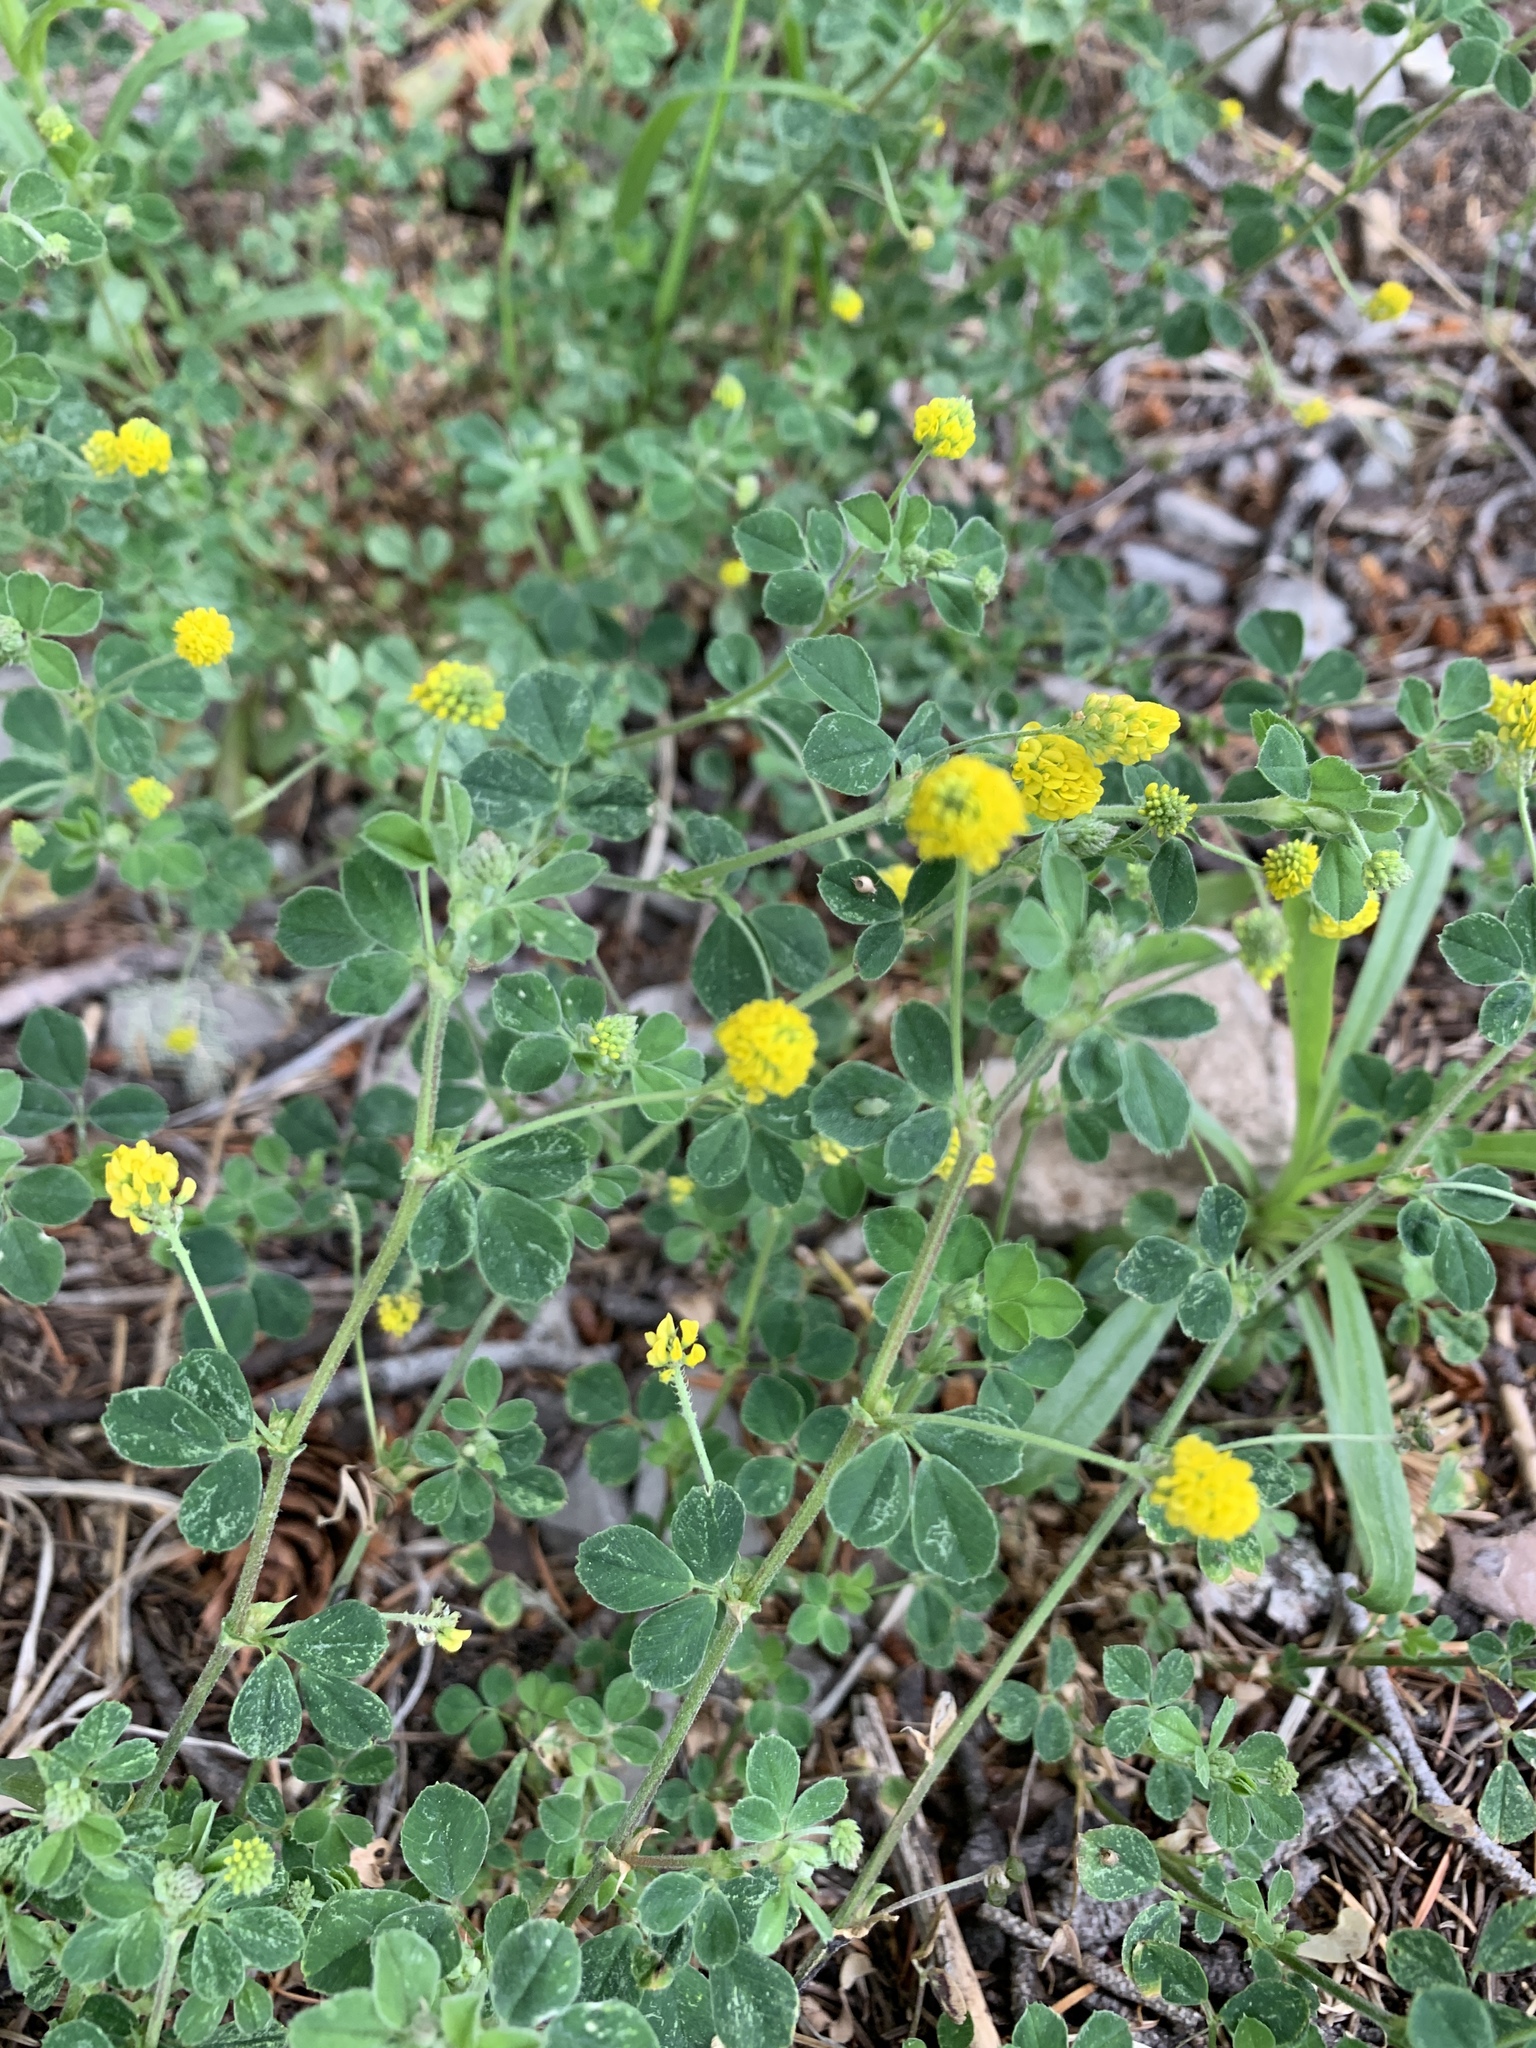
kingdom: Plantae
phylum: Tracheophyta
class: Magnoliopsida
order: Fabales
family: Fabaceae
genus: Medicago
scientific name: Medicago lupulina
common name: Black medick
